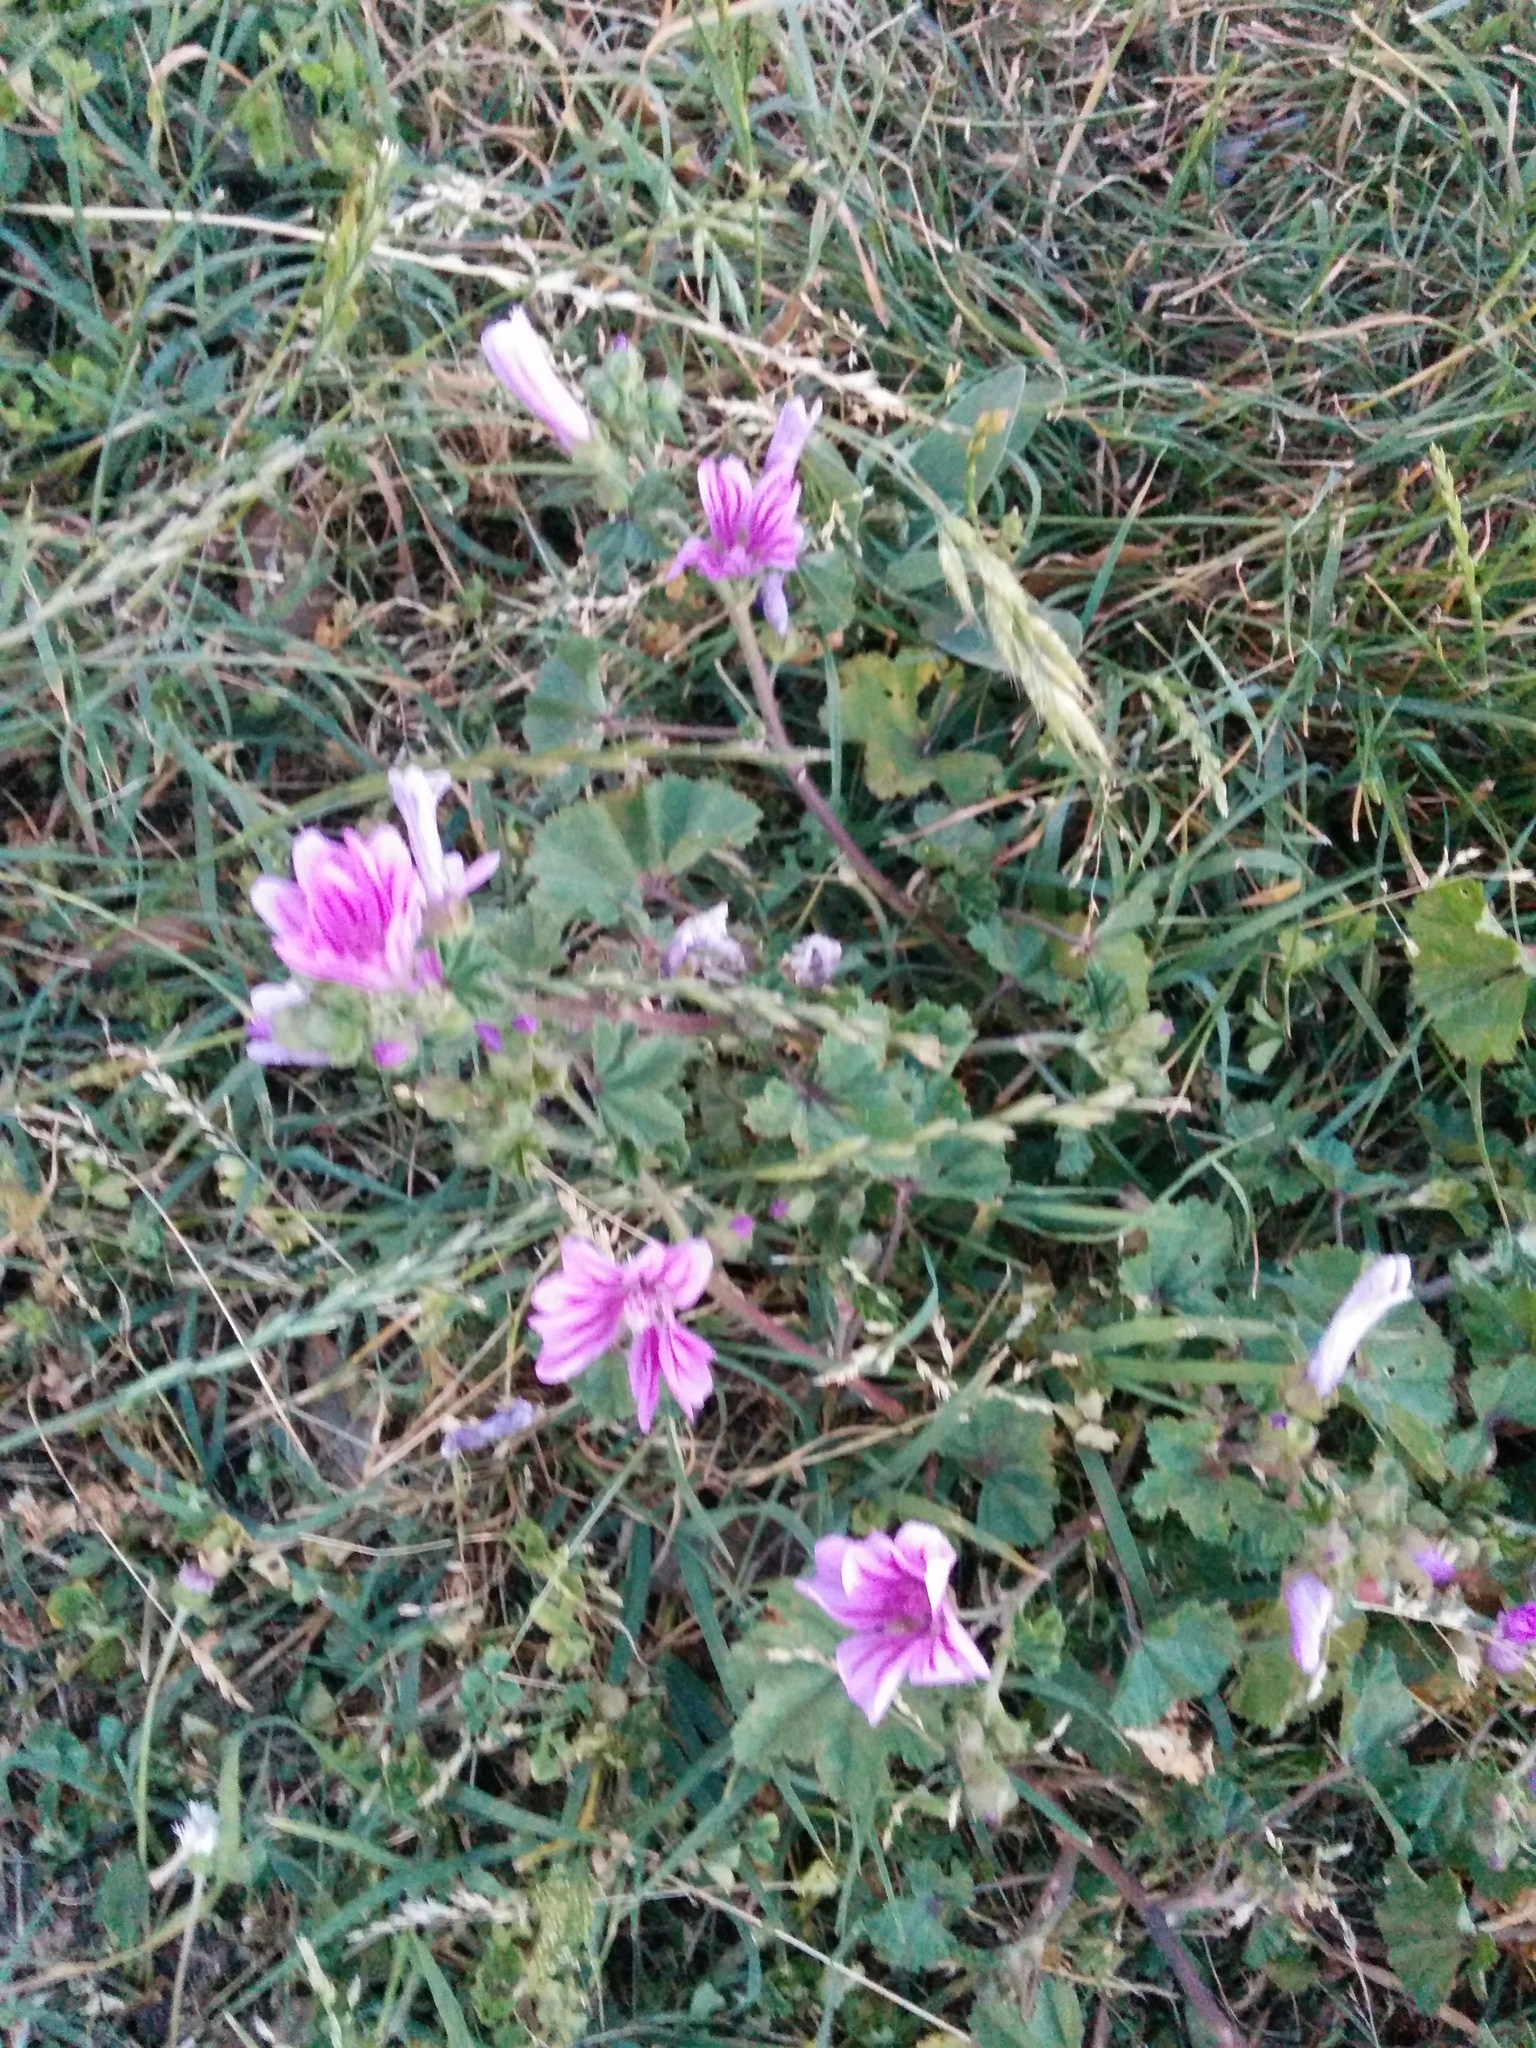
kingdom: Plantae
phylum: Tracheophyta
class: Magnoliopsida
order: Malvales
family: Malvaceae
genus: Malva
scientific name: Malva sylvestris
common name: Common mallow
